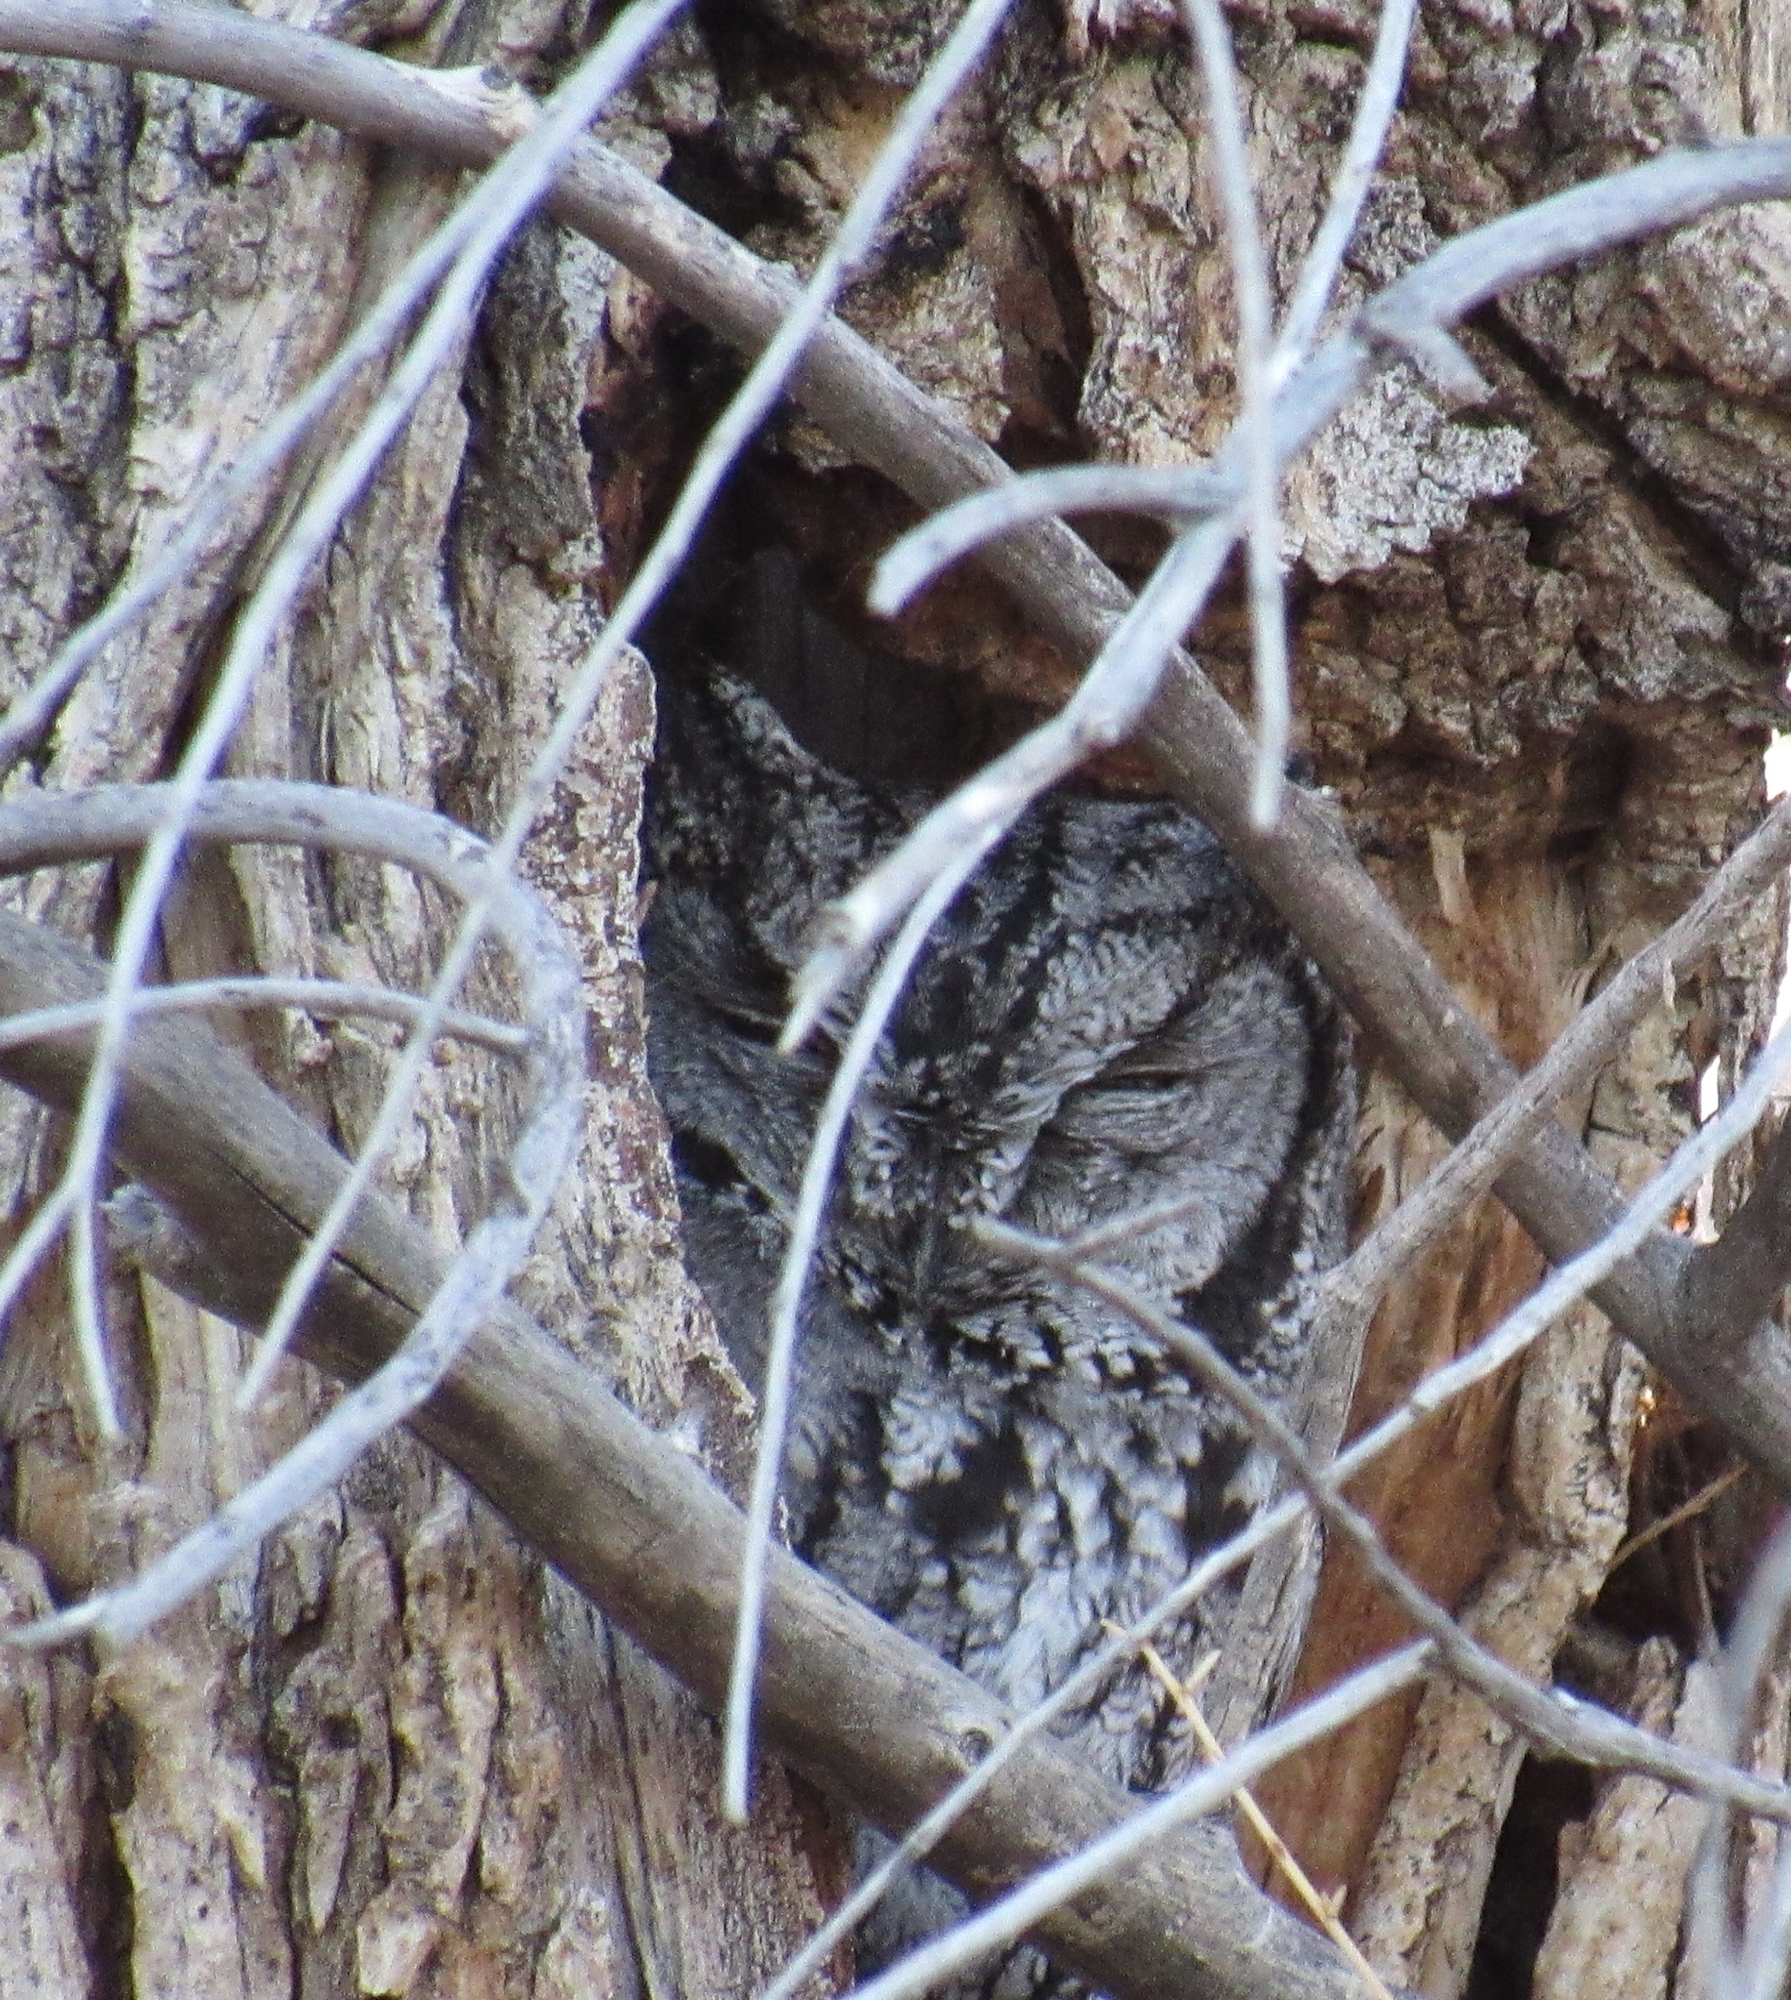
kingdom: Animalia
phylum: Chordata
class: Aves
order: Strigiformes
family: Strigidae
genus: Megascops
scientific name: Megascops kennicottii
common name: Western screech-owl
